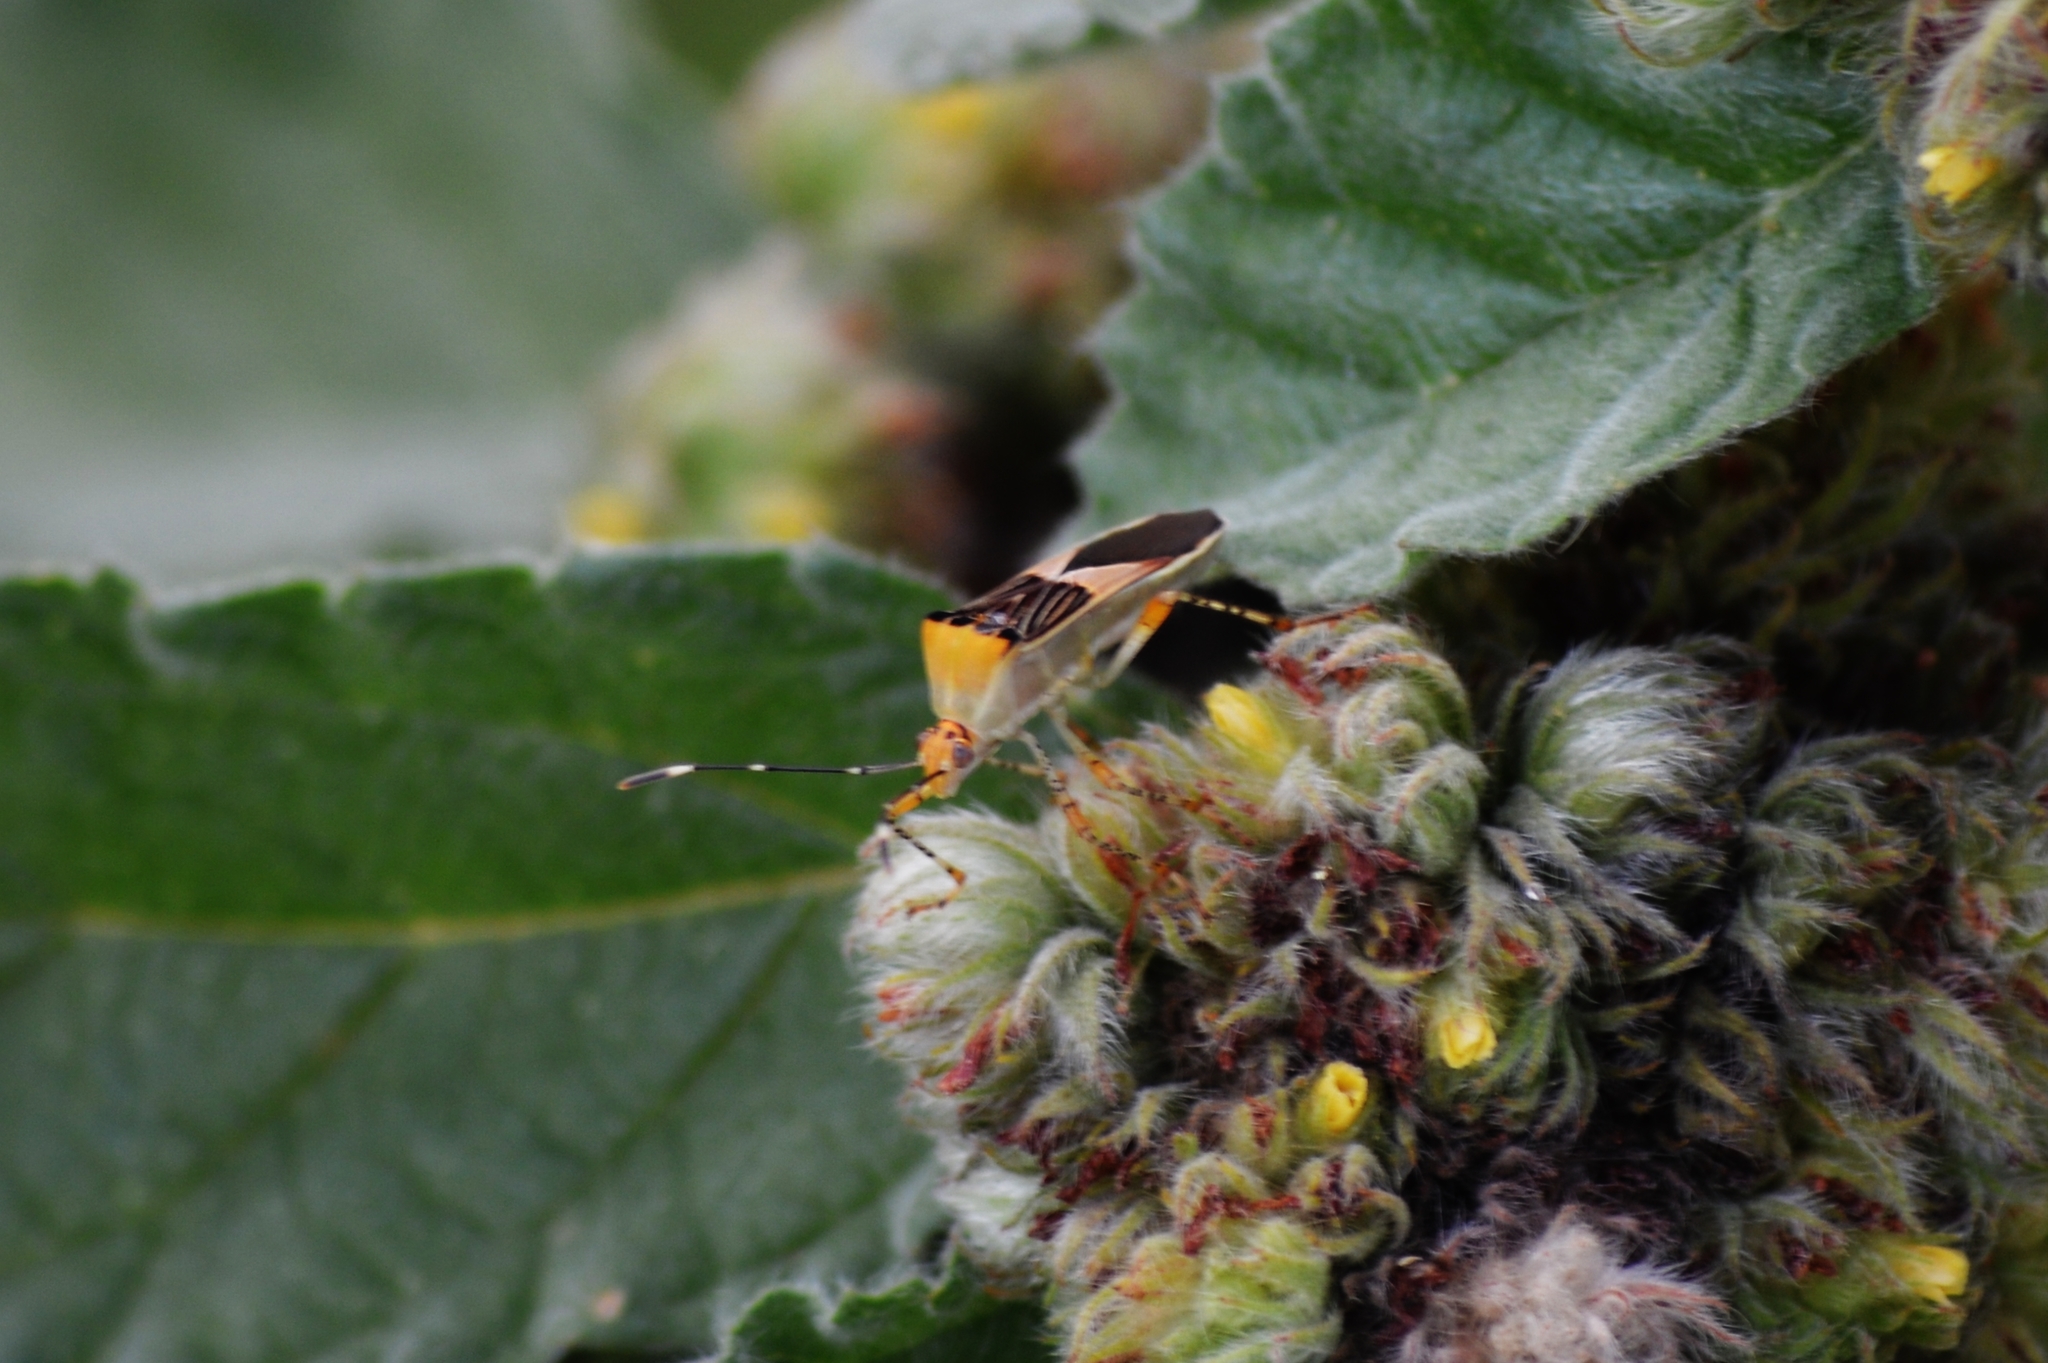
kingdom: Animalia
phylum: Arthropoda
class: Insecta
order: Hemiptera
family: Coreidae
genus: Hypselonotus
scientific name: Hypselonotus fulvus
